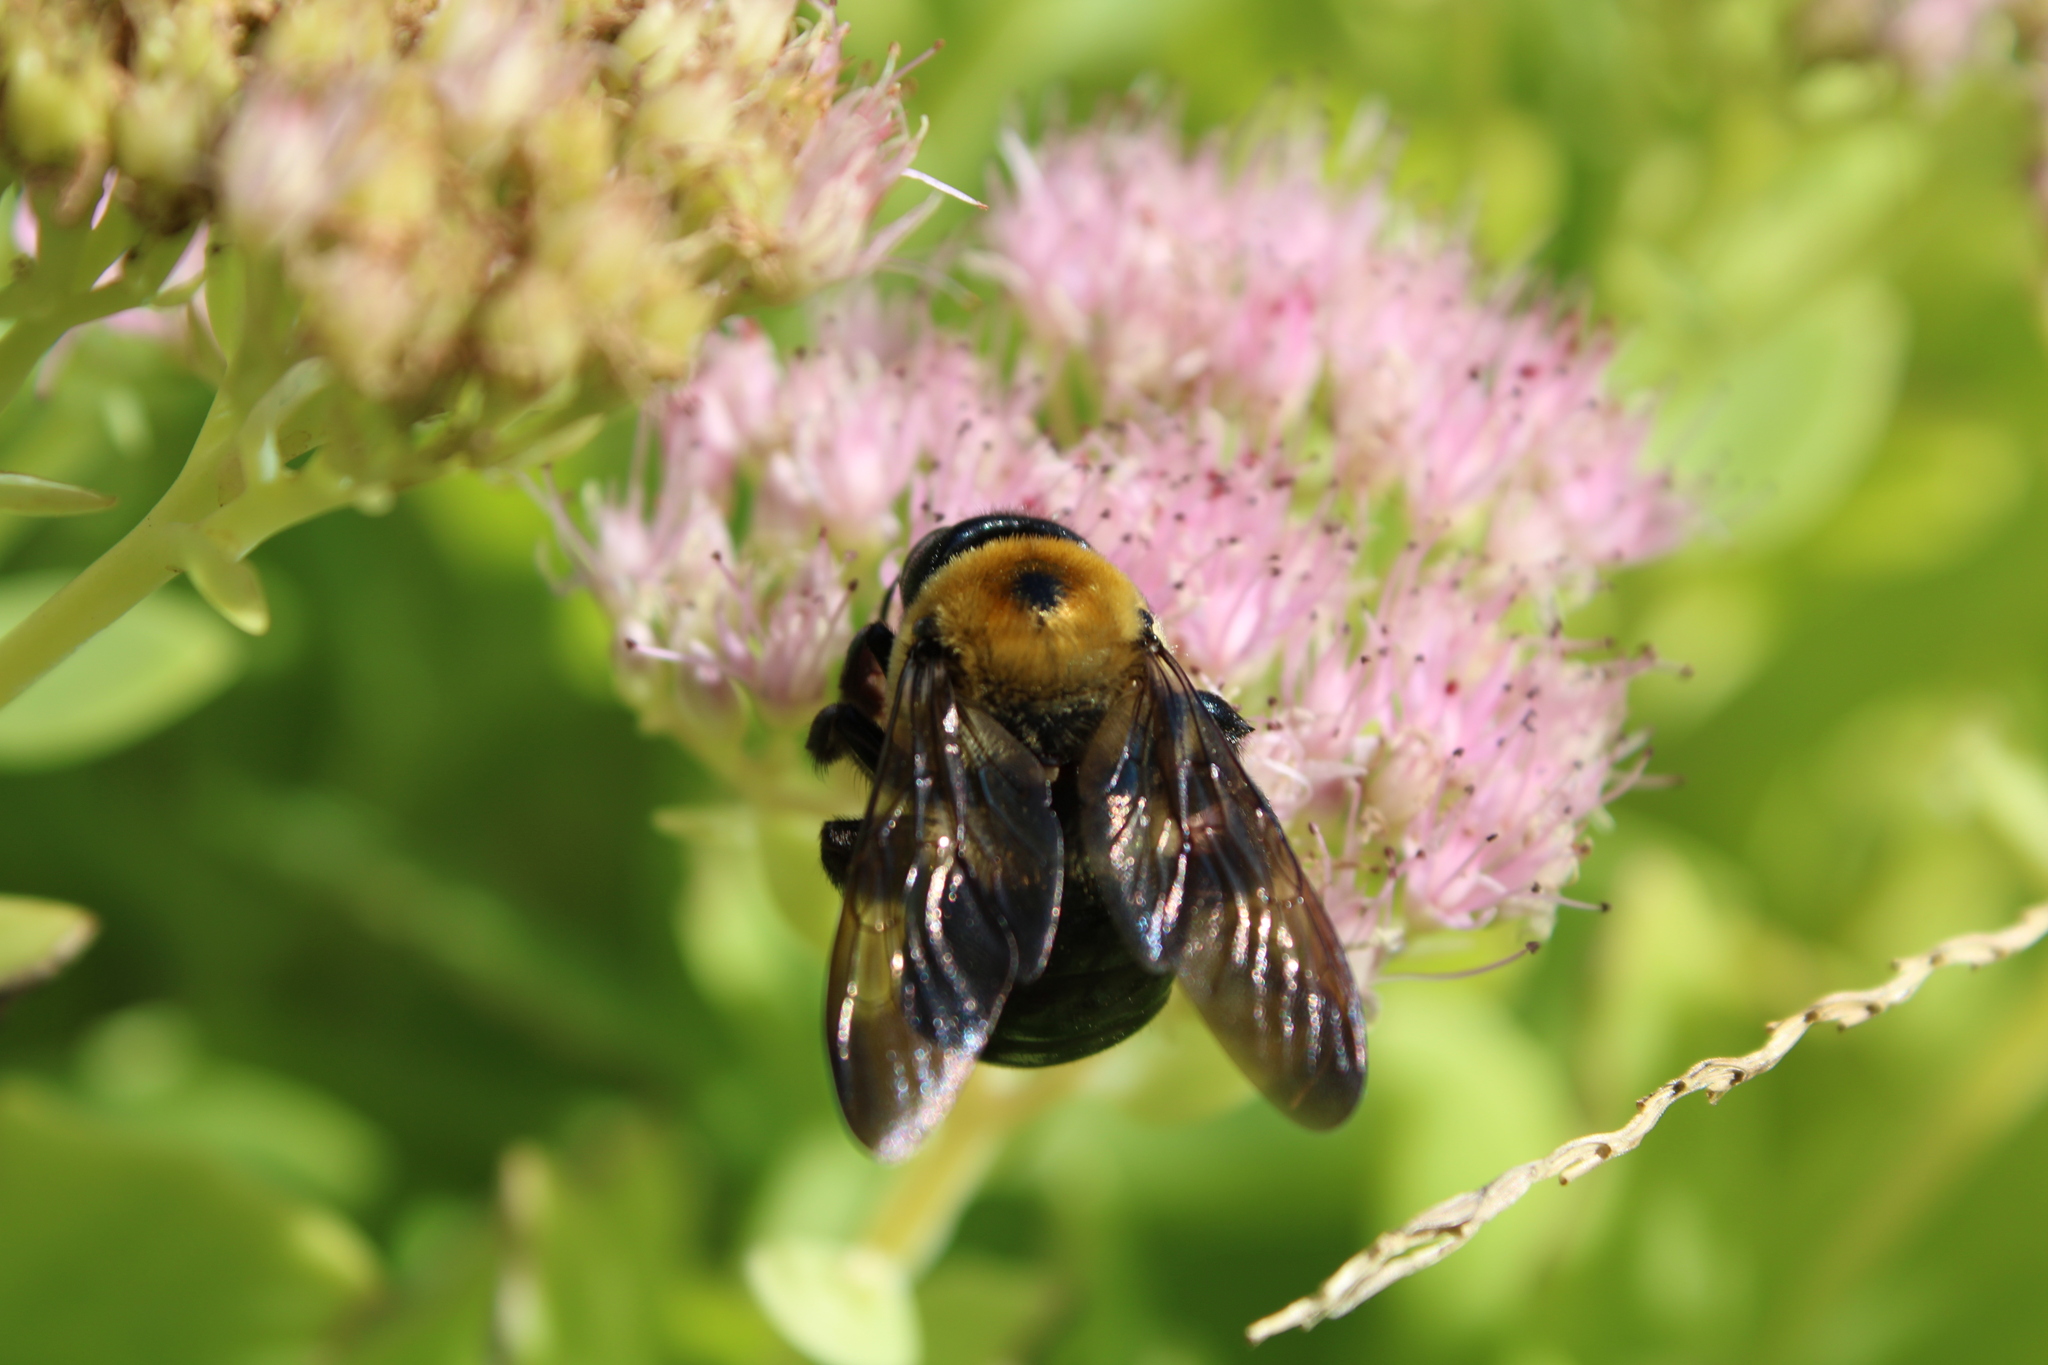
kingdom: Animalia
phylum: Arthropoda
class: Insecta
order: Hymenoptera
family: Apidae
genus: Xylocopa
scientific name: Xylocopa virginica
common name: Carpenter bee
